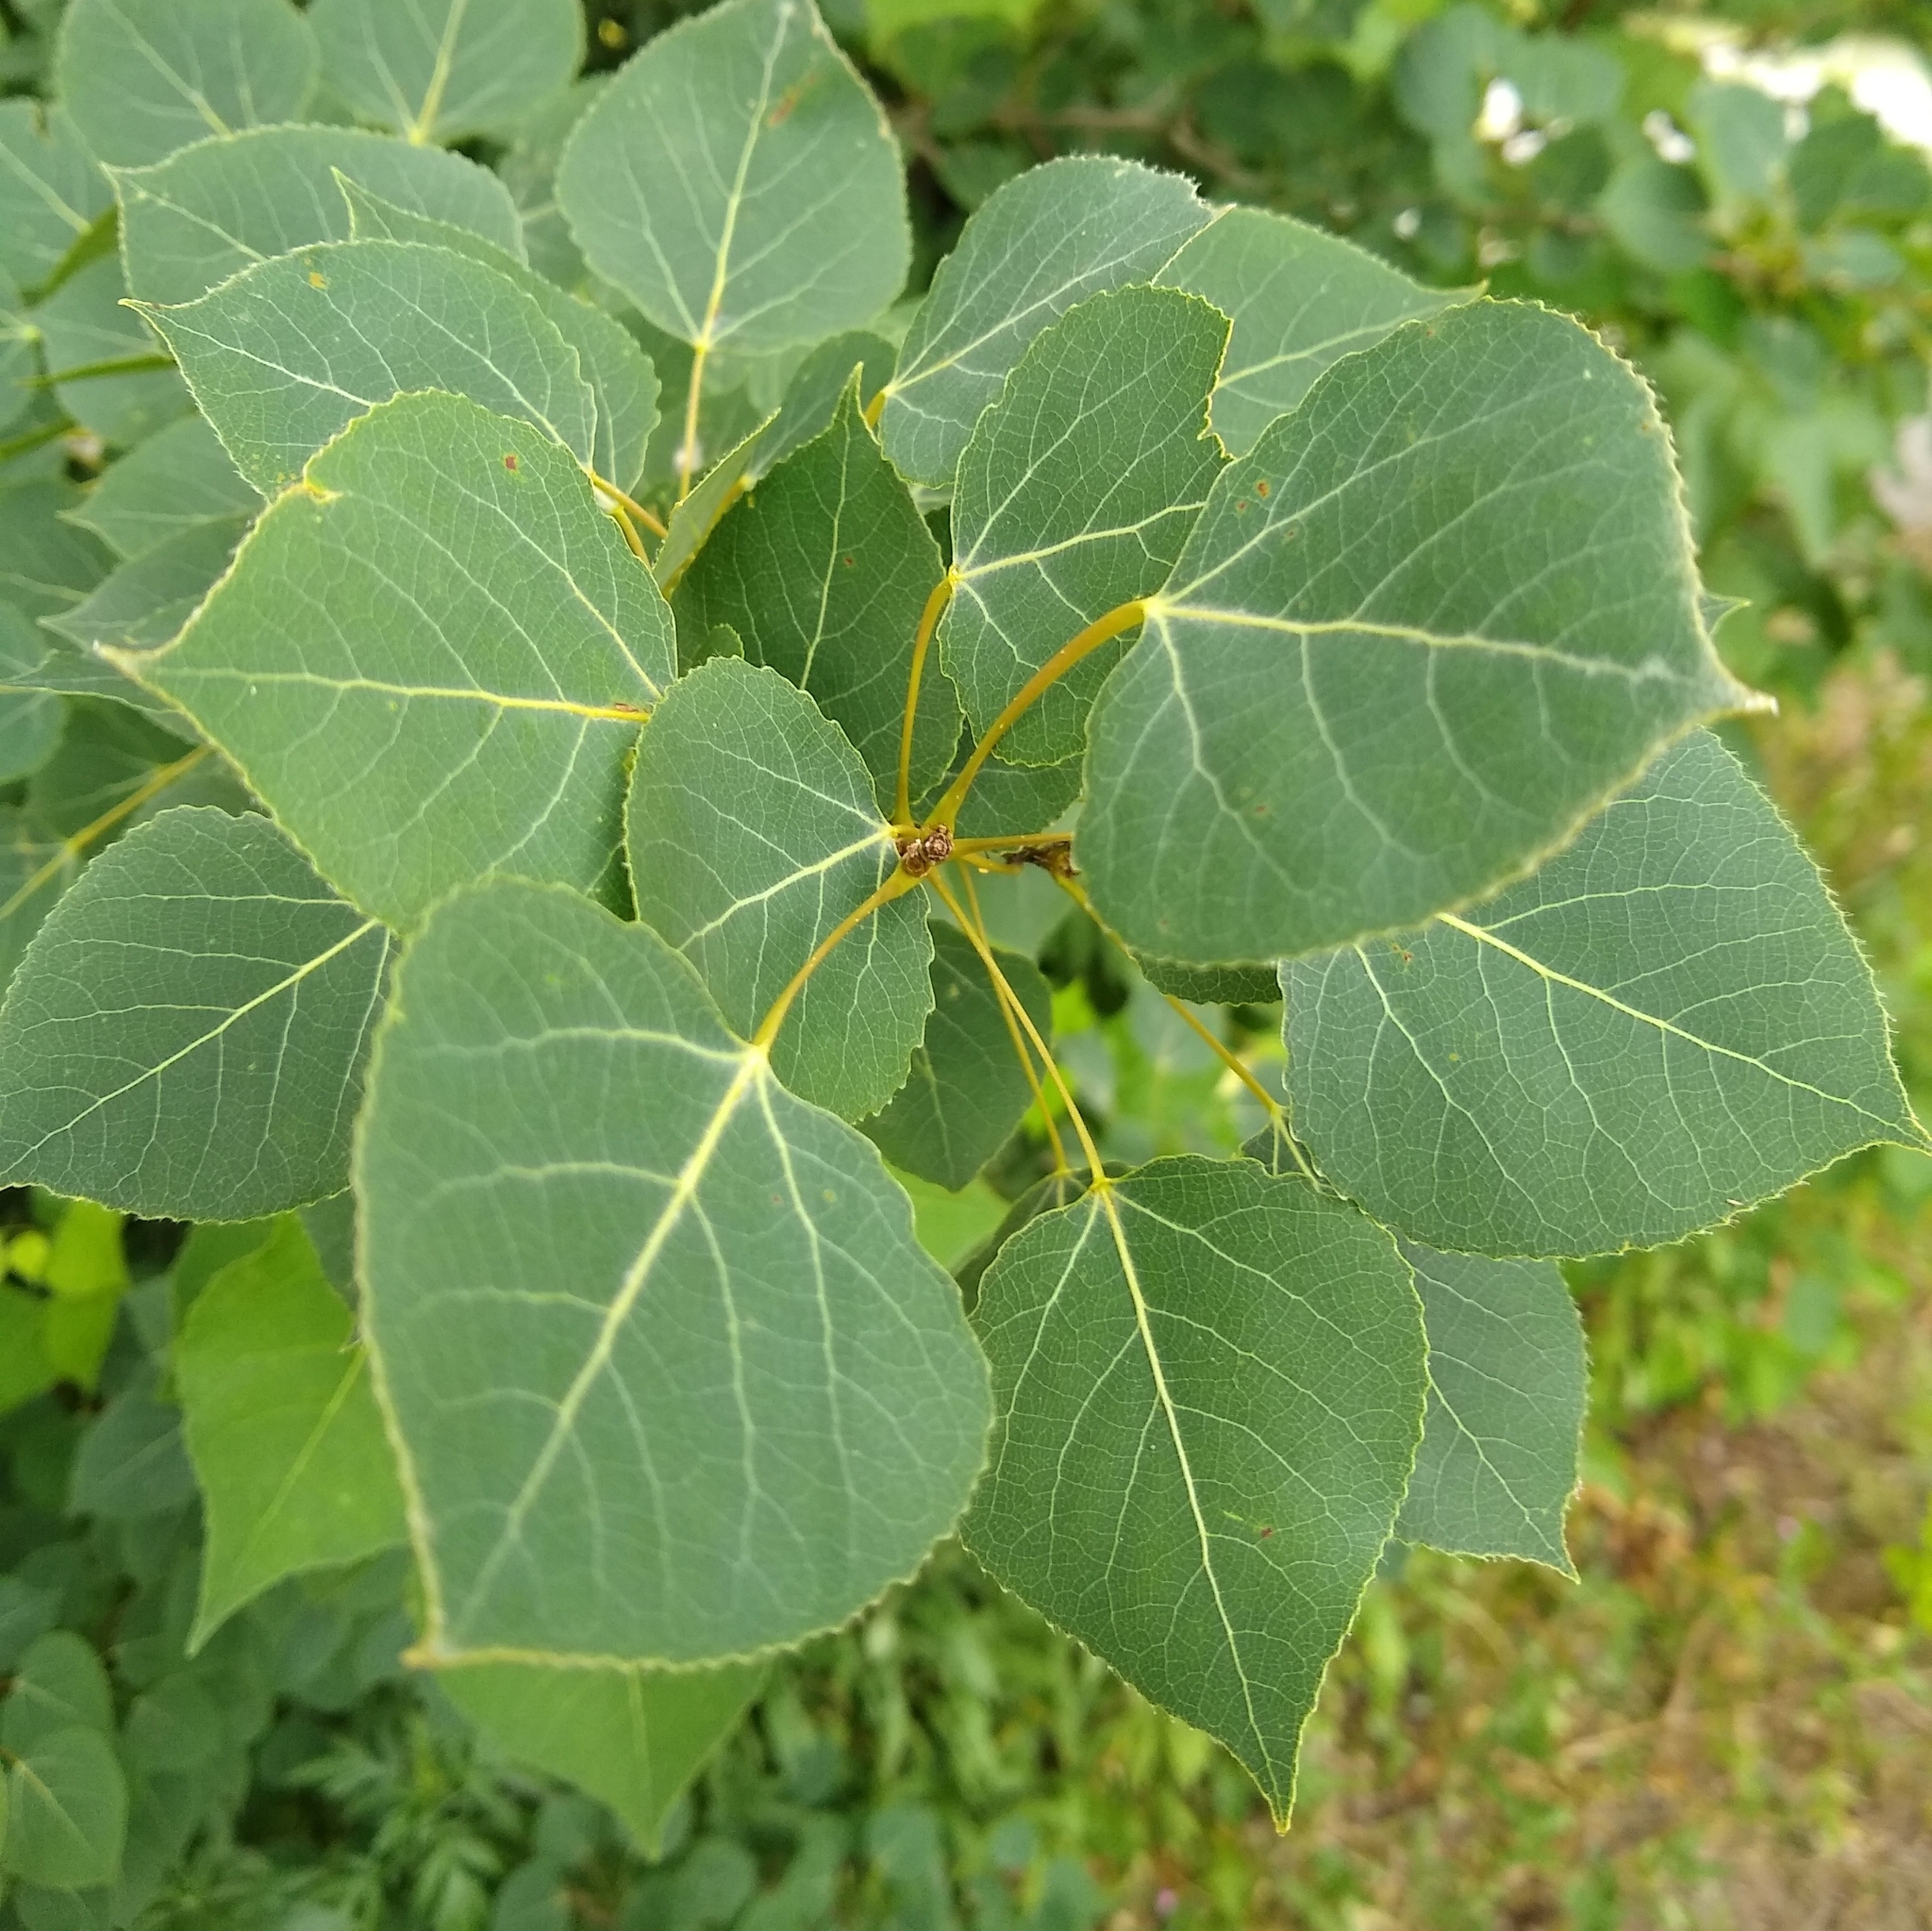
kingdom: Plantae
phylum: Tracheophyta
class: Magnoliopsida
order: Malpighiales
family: Salicaceae
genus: Populus
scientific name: Populus tremuloides
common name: Quaking aspen
